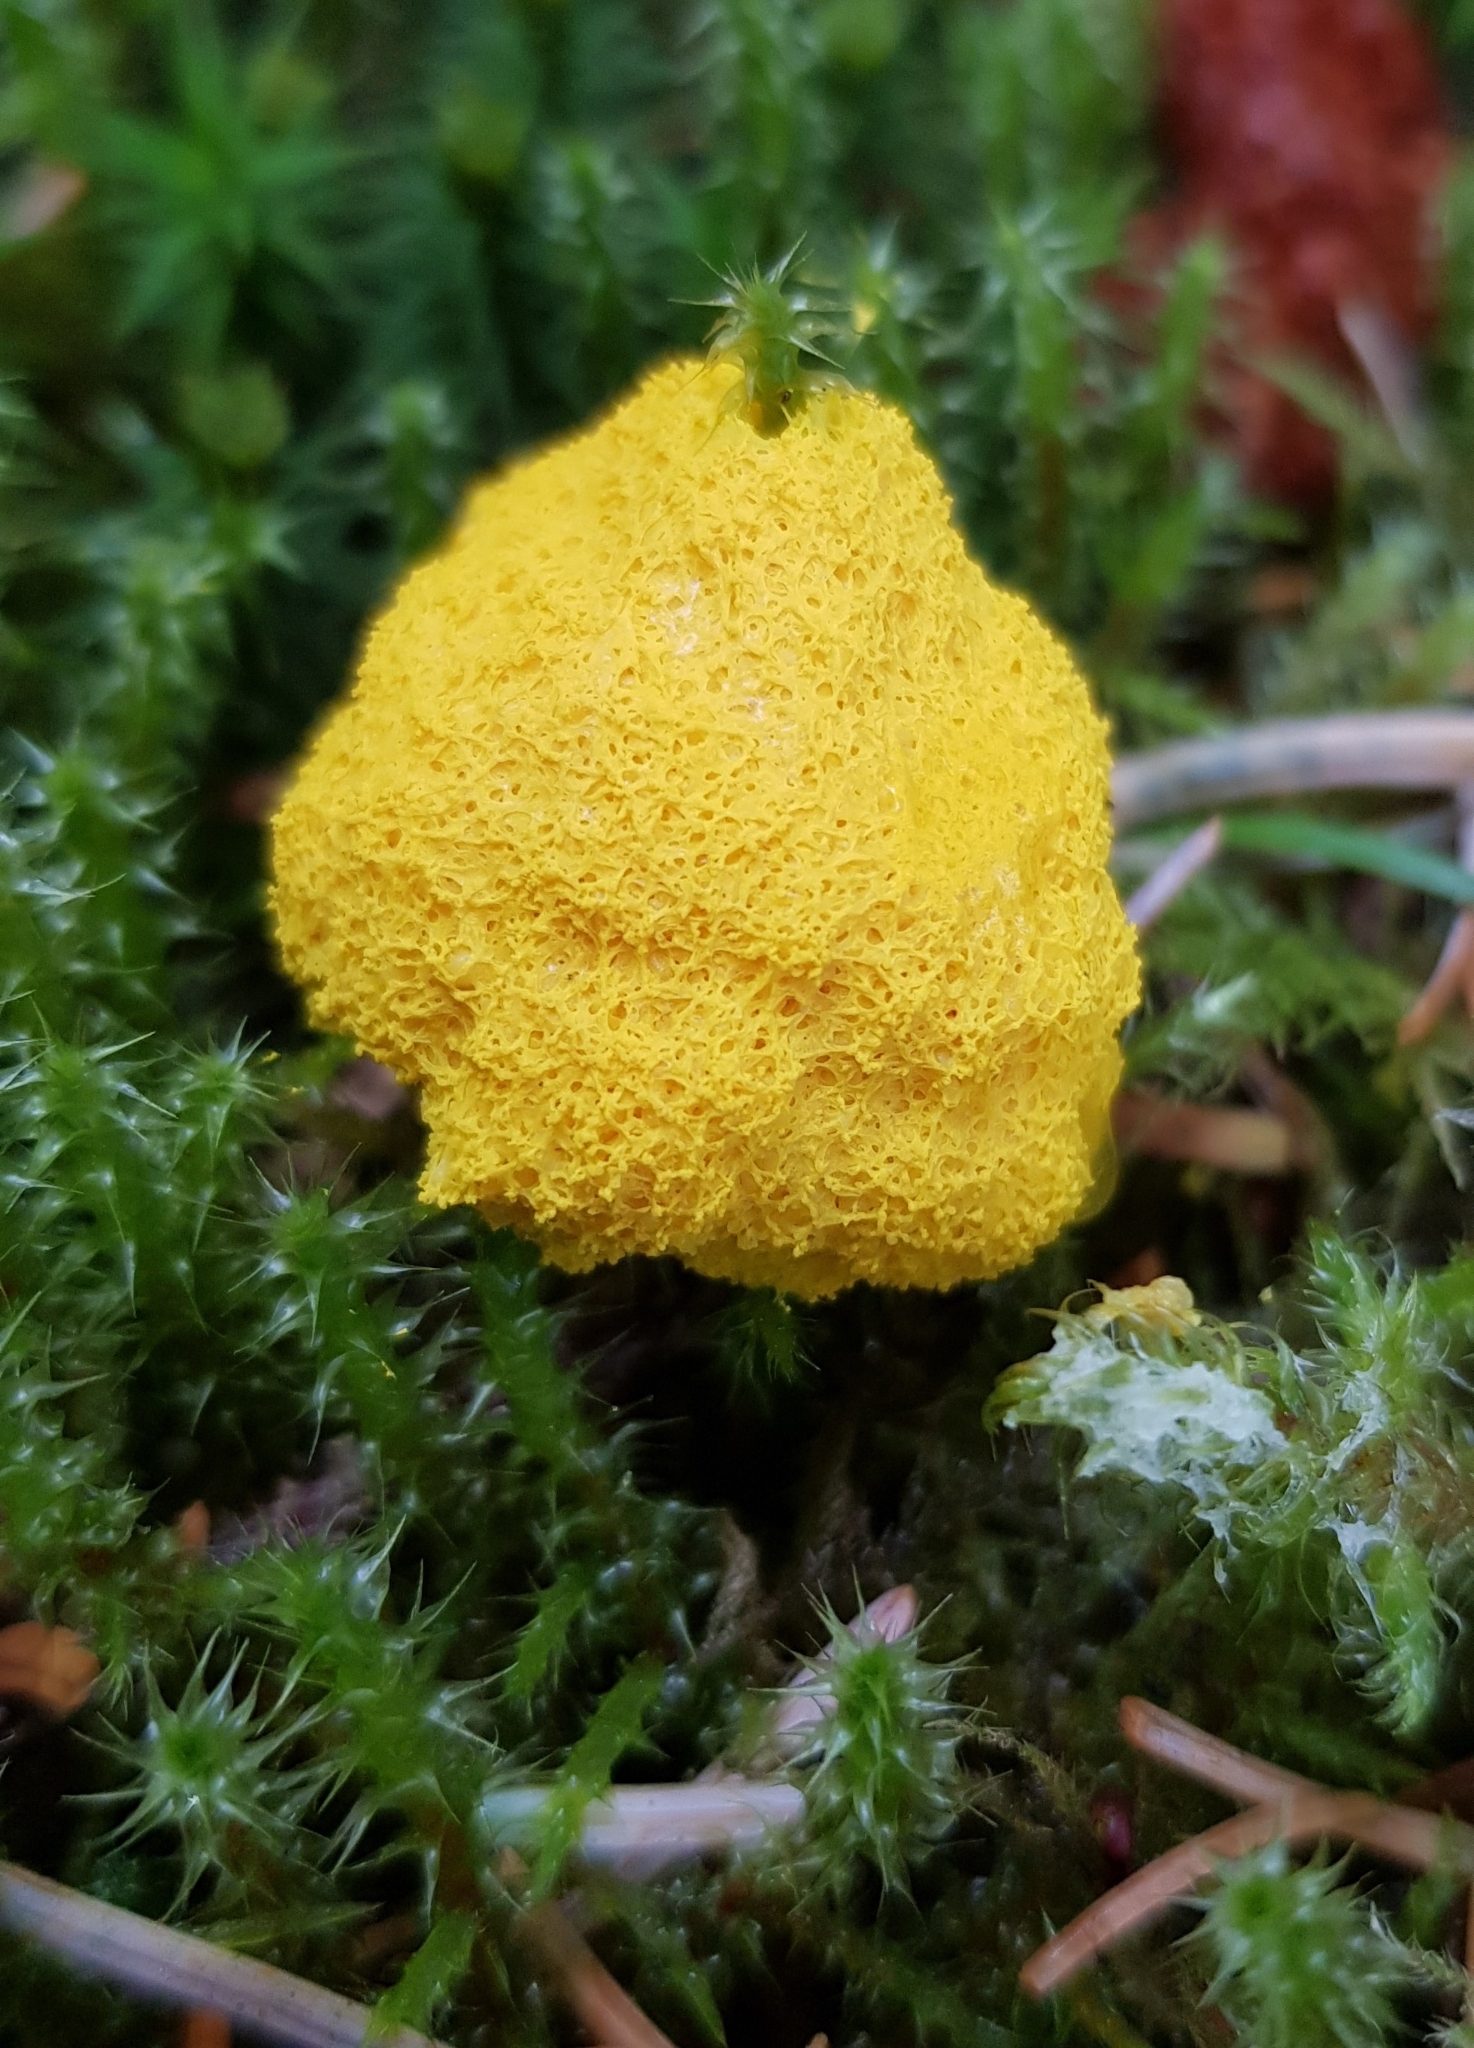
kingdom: Protozoa
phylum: Mycetozoa
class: Myxomycetes
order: Physarales
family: Physaraceae
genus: Fuligo
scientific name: Fuligo septica
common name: Dog vomit slime mold
